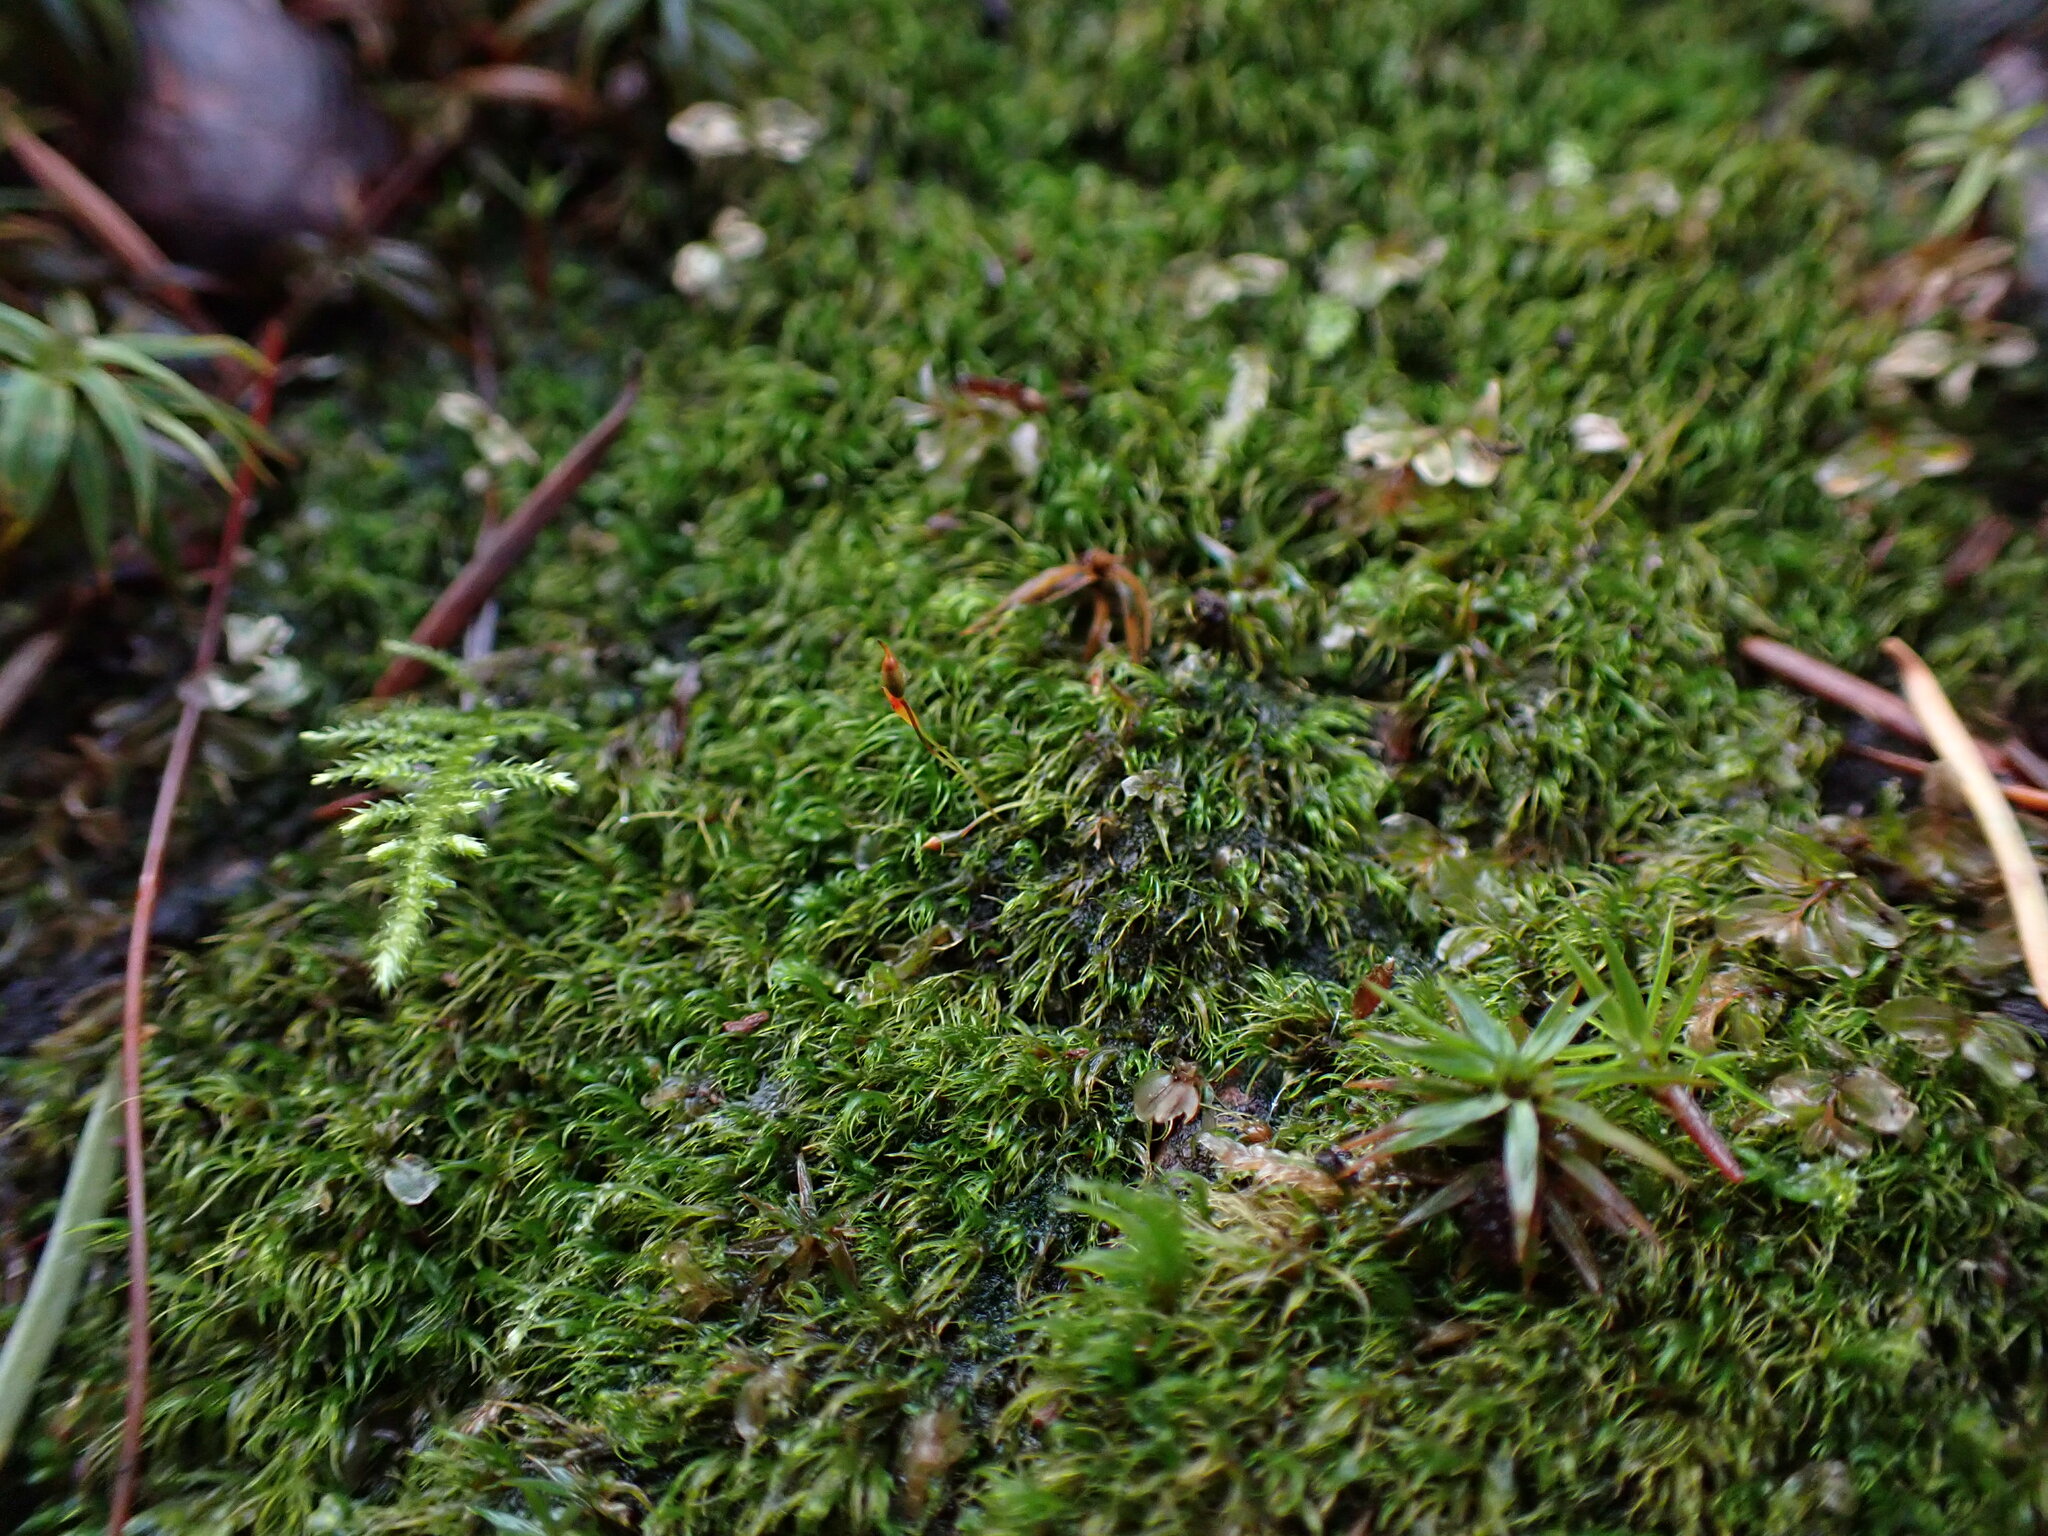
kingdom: Plantae
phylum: Bryophyta
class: Bryopsida
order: Dicranales
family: Ditrichaceae
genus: Ditrichum
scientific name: Ditrichum heteromallum
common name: Curve-leaved ditrichum
